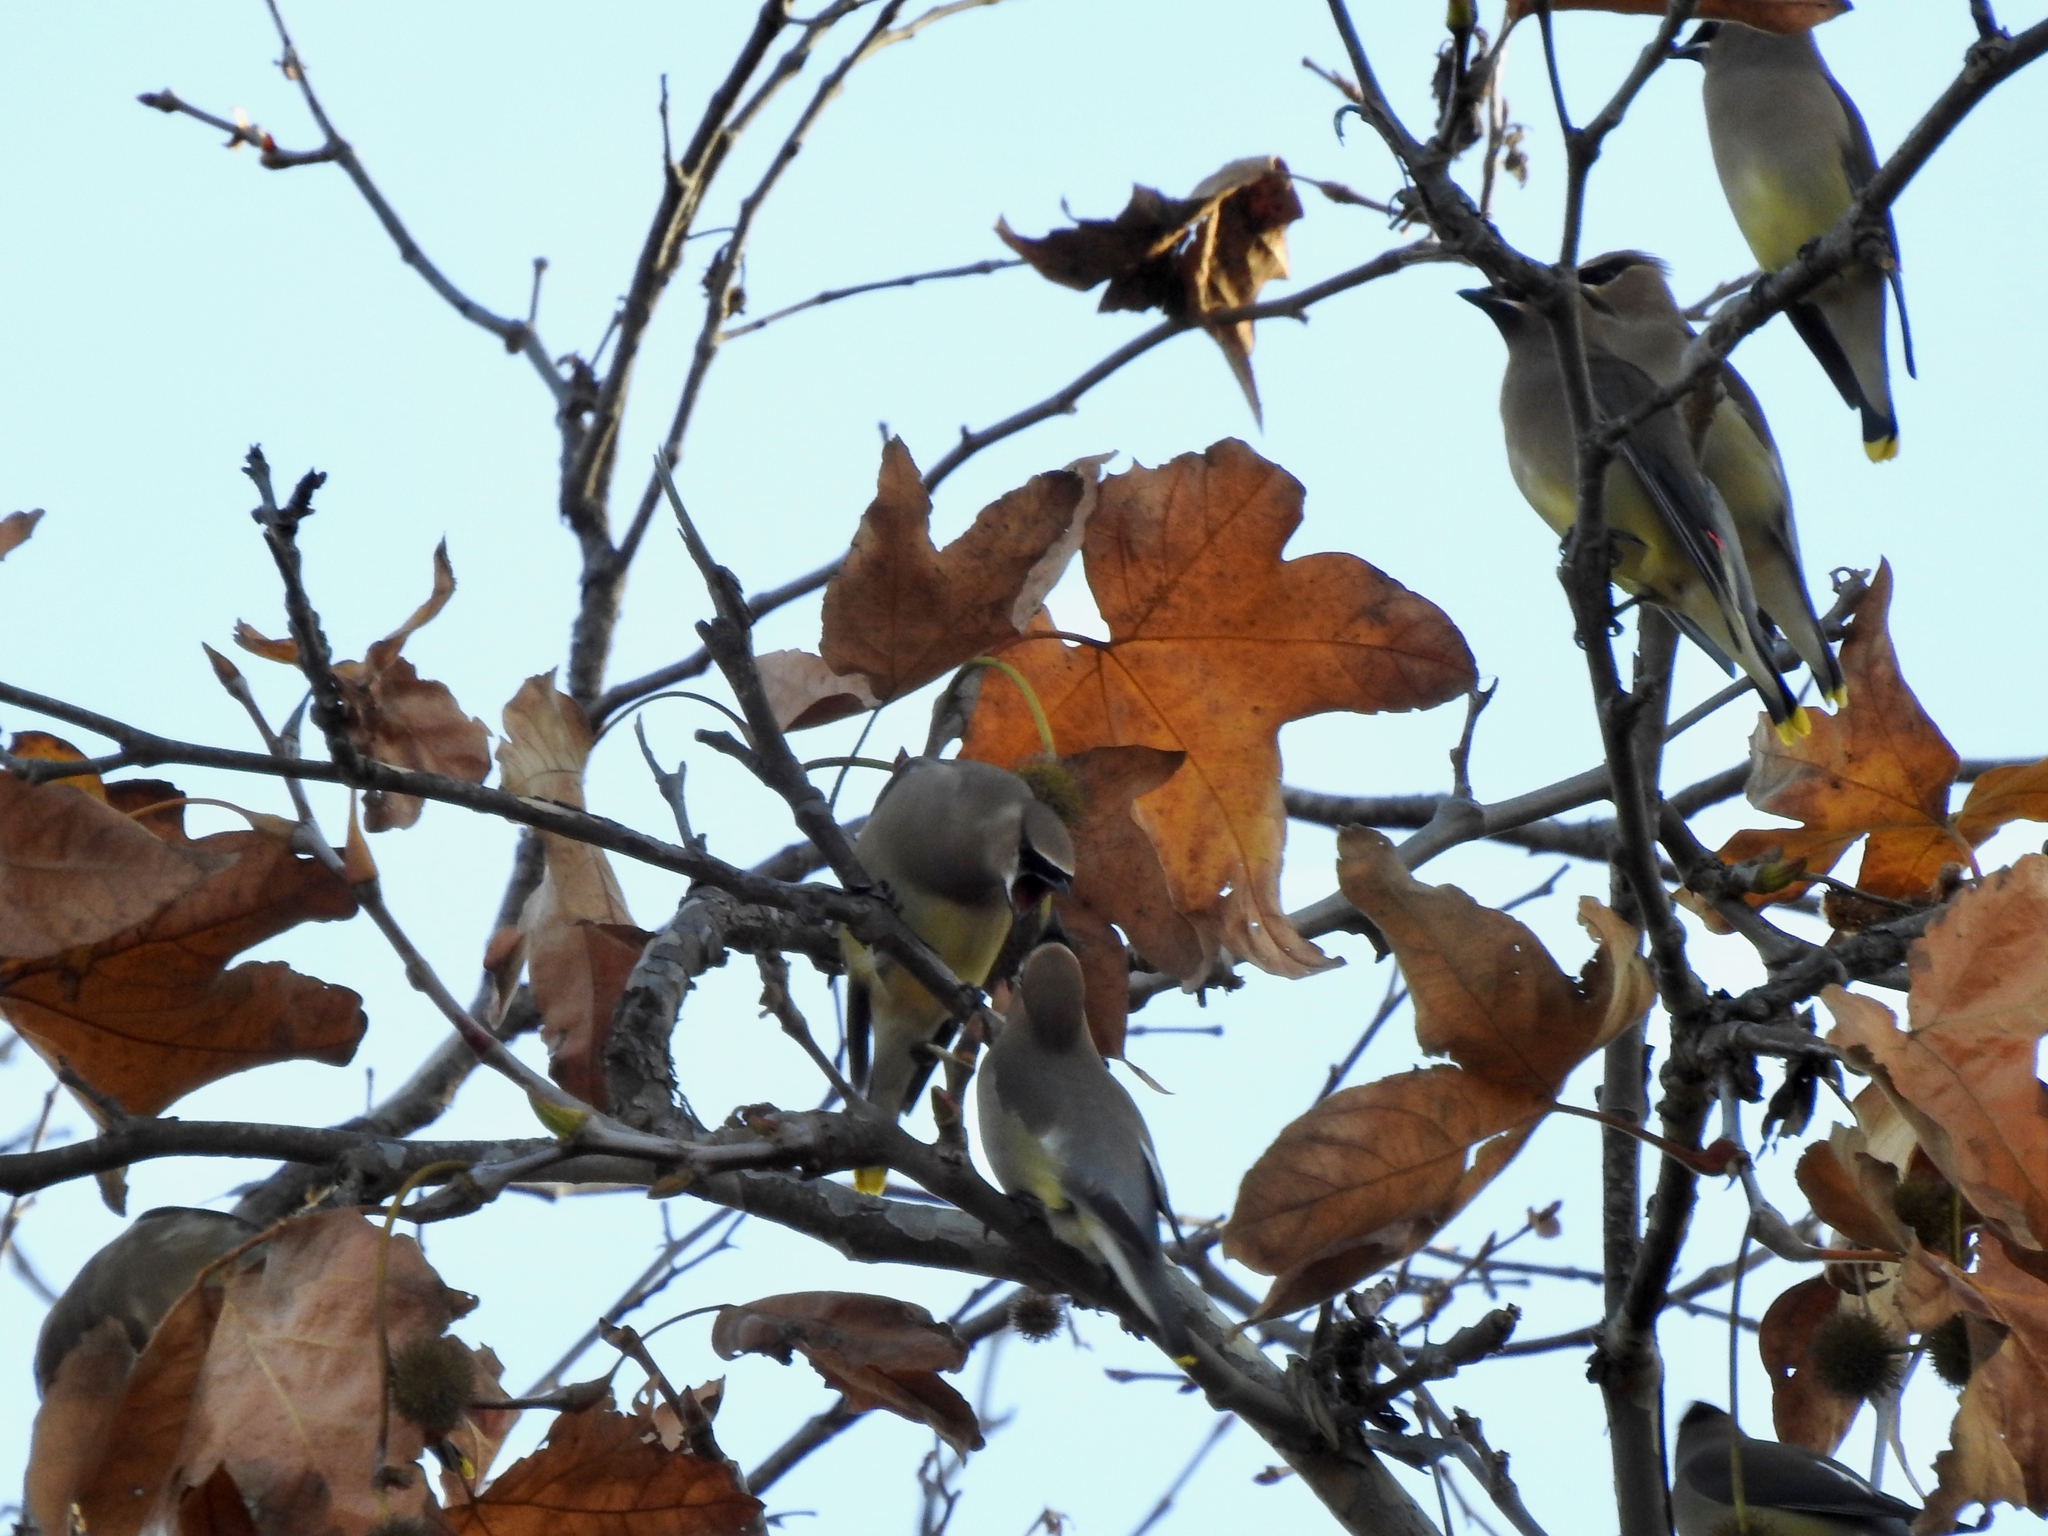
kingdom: Animalia
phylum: Chordata
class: Aves
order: Passeriformes
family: Bombycillidae
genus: Bombycilla
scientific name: Bombycilla cedrorum
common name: Cedar waxwing
